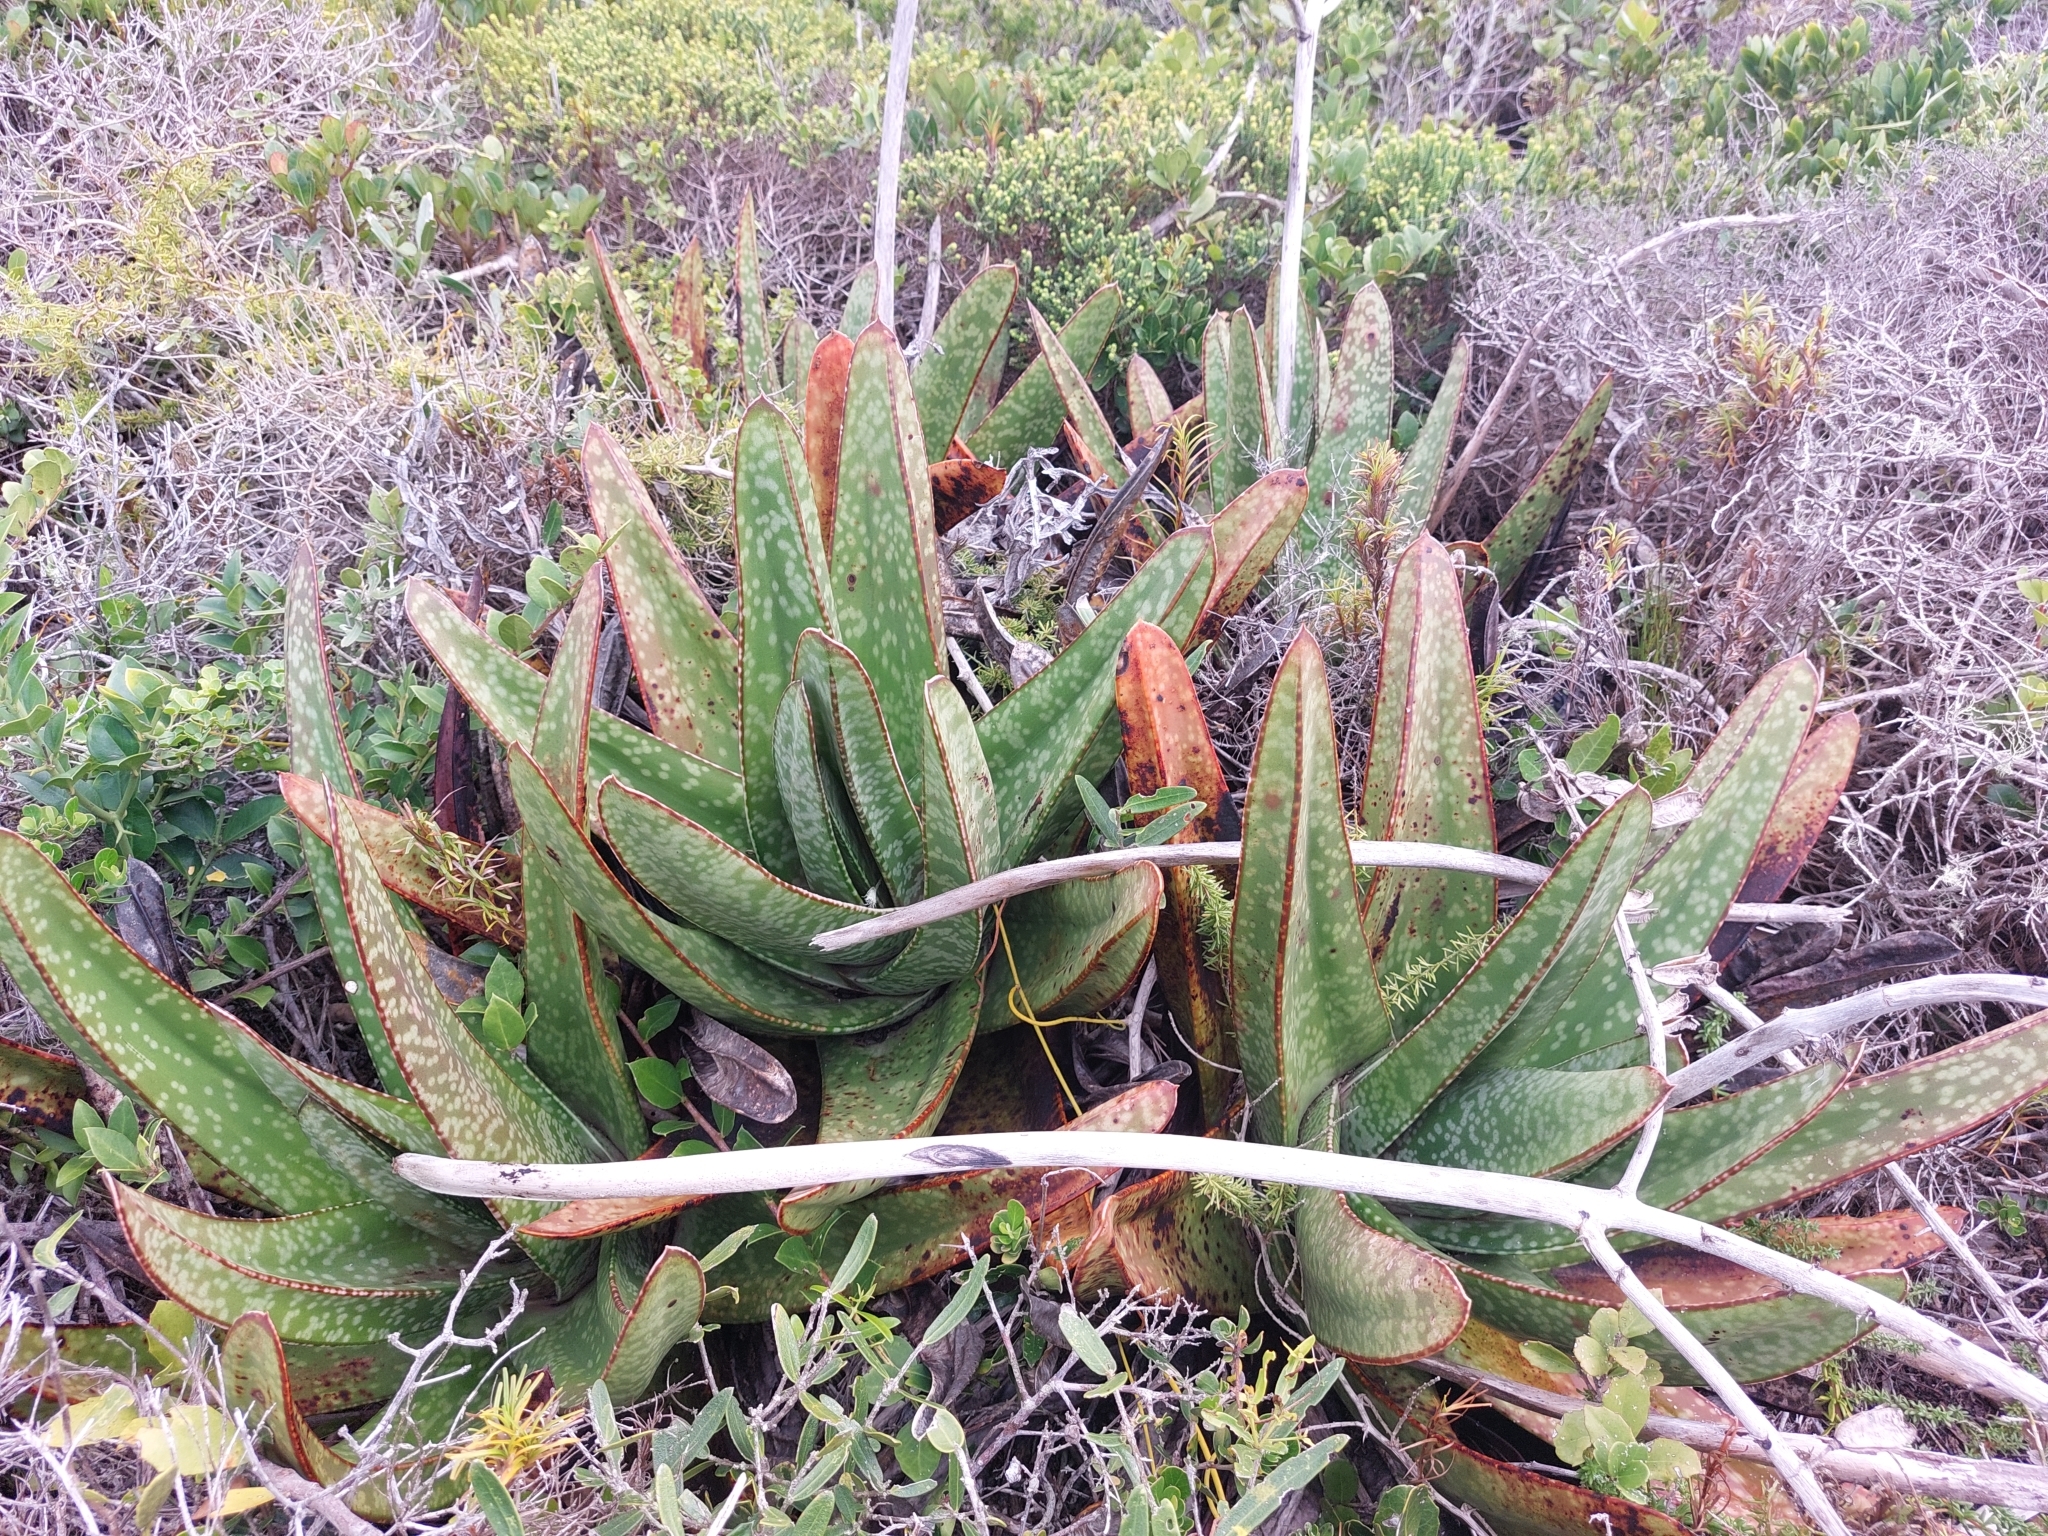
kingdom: Plantae
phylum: Tracheophyta
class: Liliopsida
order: Asparagales
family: Asphodelaceae
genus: Gasteria
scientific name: Gasteria acinacifolia
